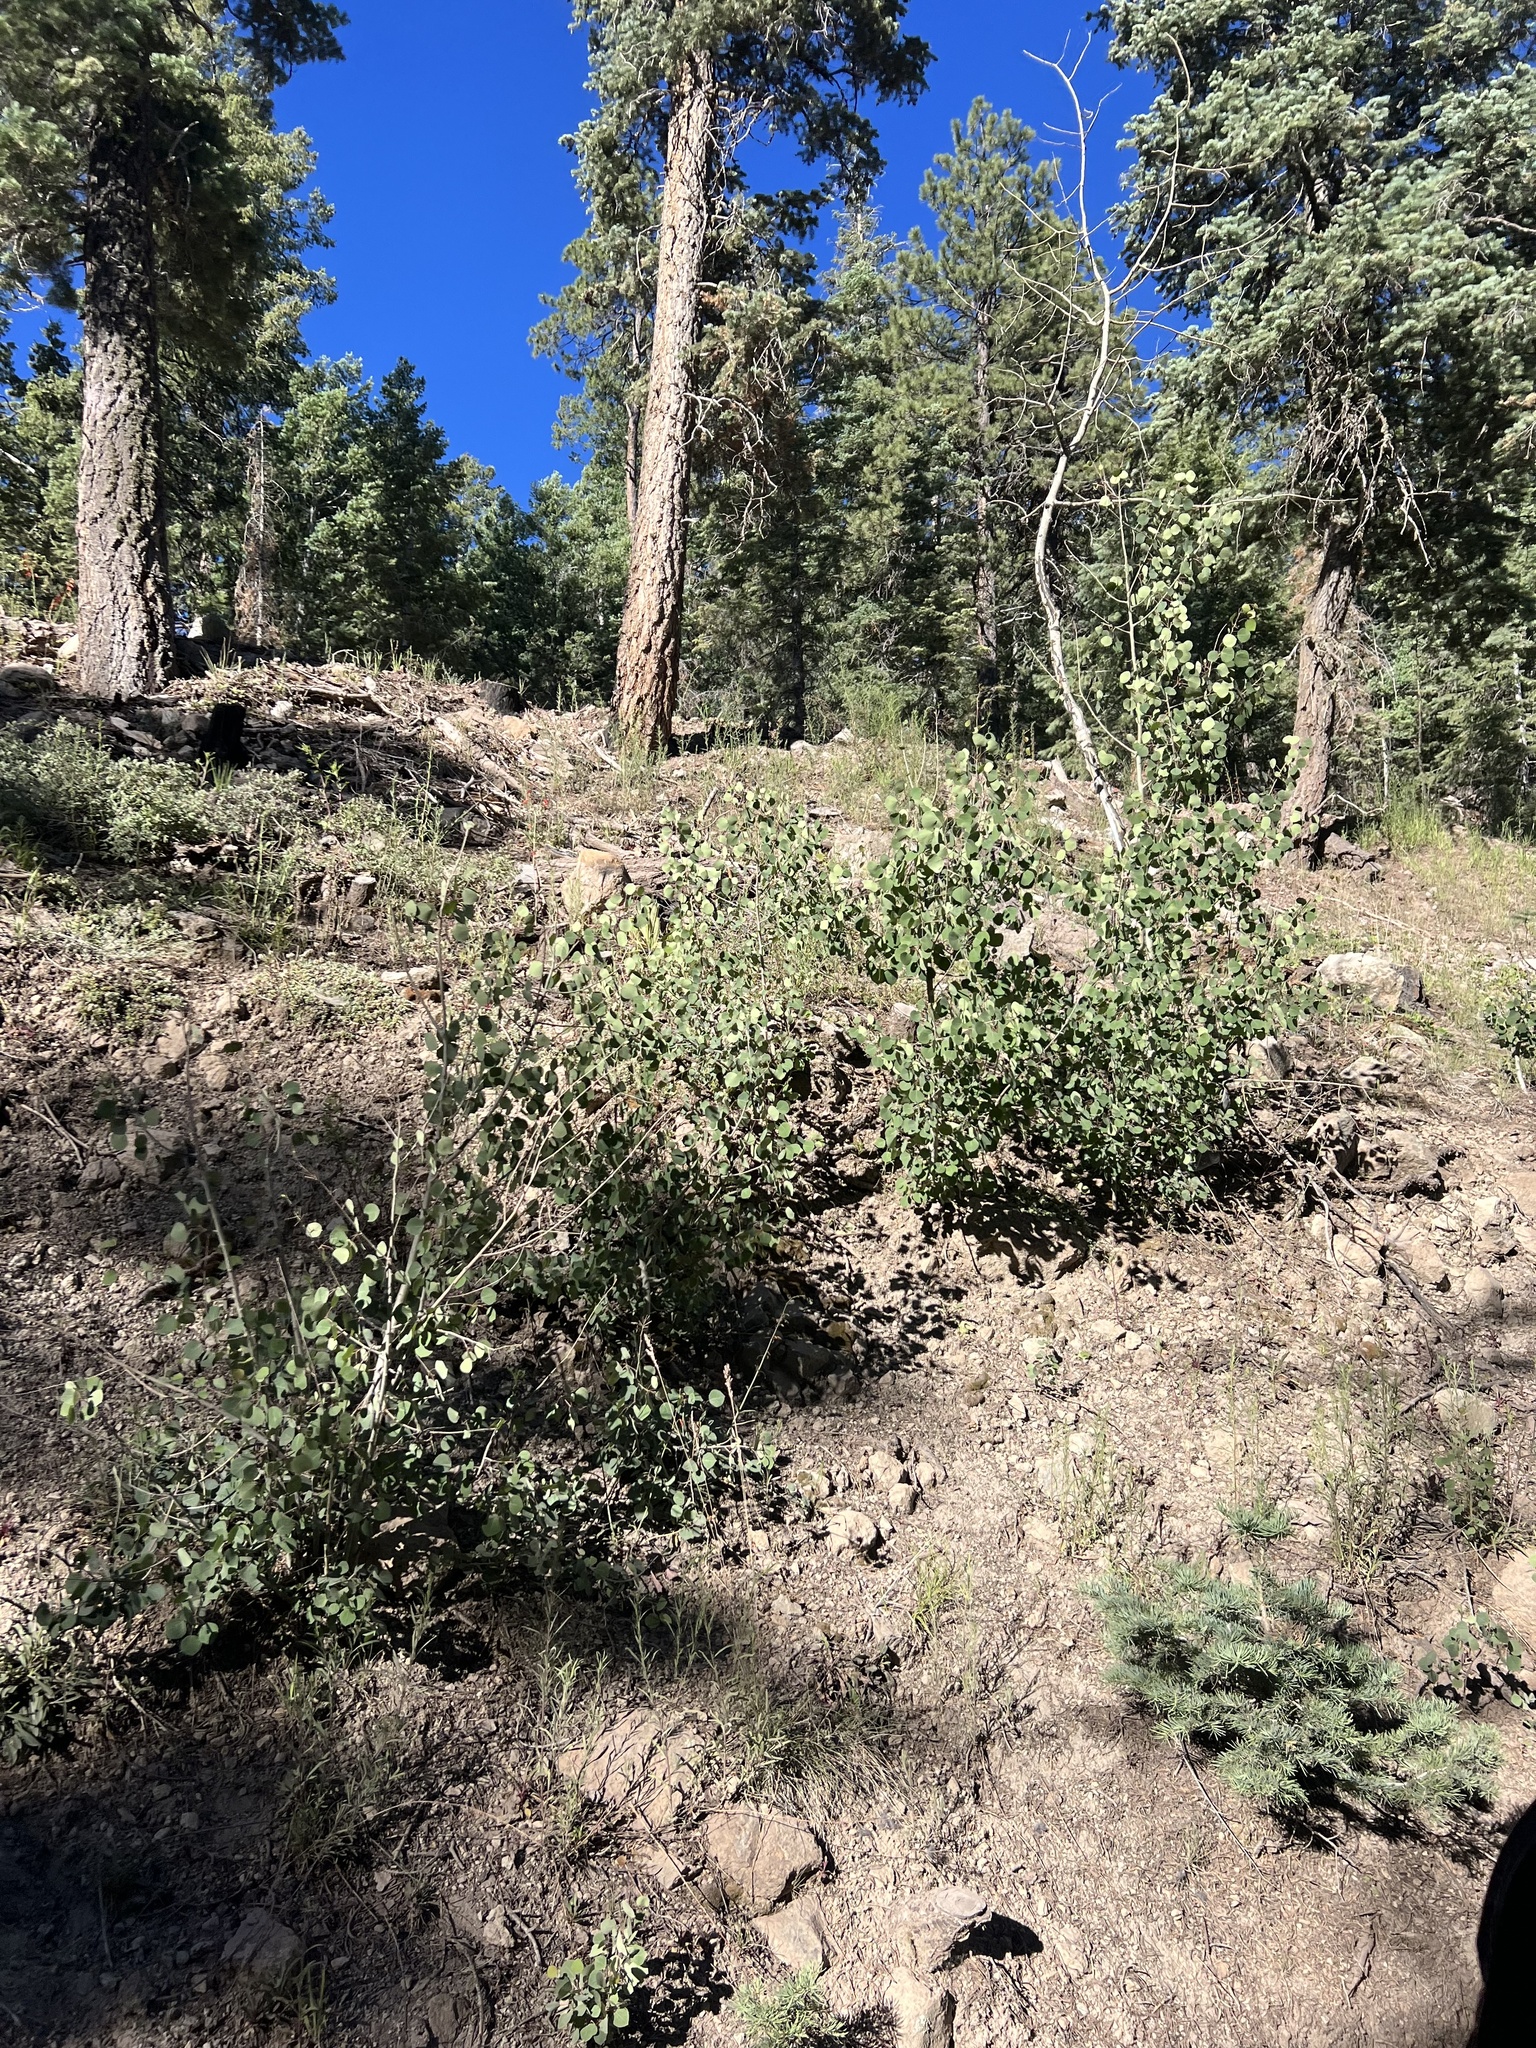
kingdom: Plantae
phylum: Tracheophyta
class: Magnoliopsida
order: Malpighiales
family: Salicaceae
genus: Populus
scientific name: Populus tremuloides
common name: Quaking aspen
